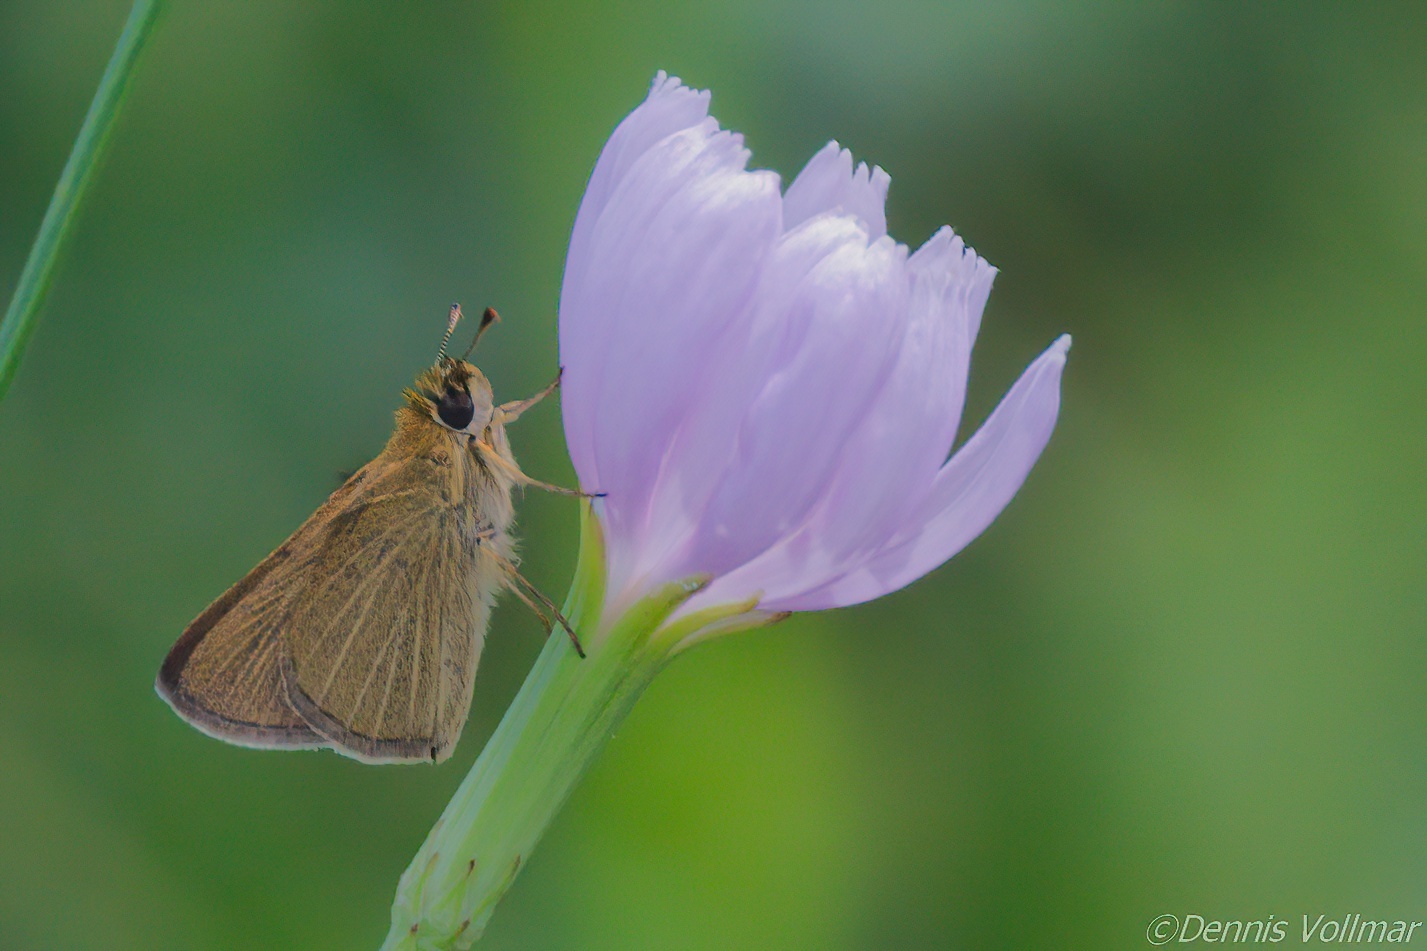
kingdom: Animalia
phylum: Arthropoda
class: Insecta
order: Lepidoptera
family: Hesperiidae
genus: Nastra
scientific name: Nastra lherminier
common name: Swarthy skipper
